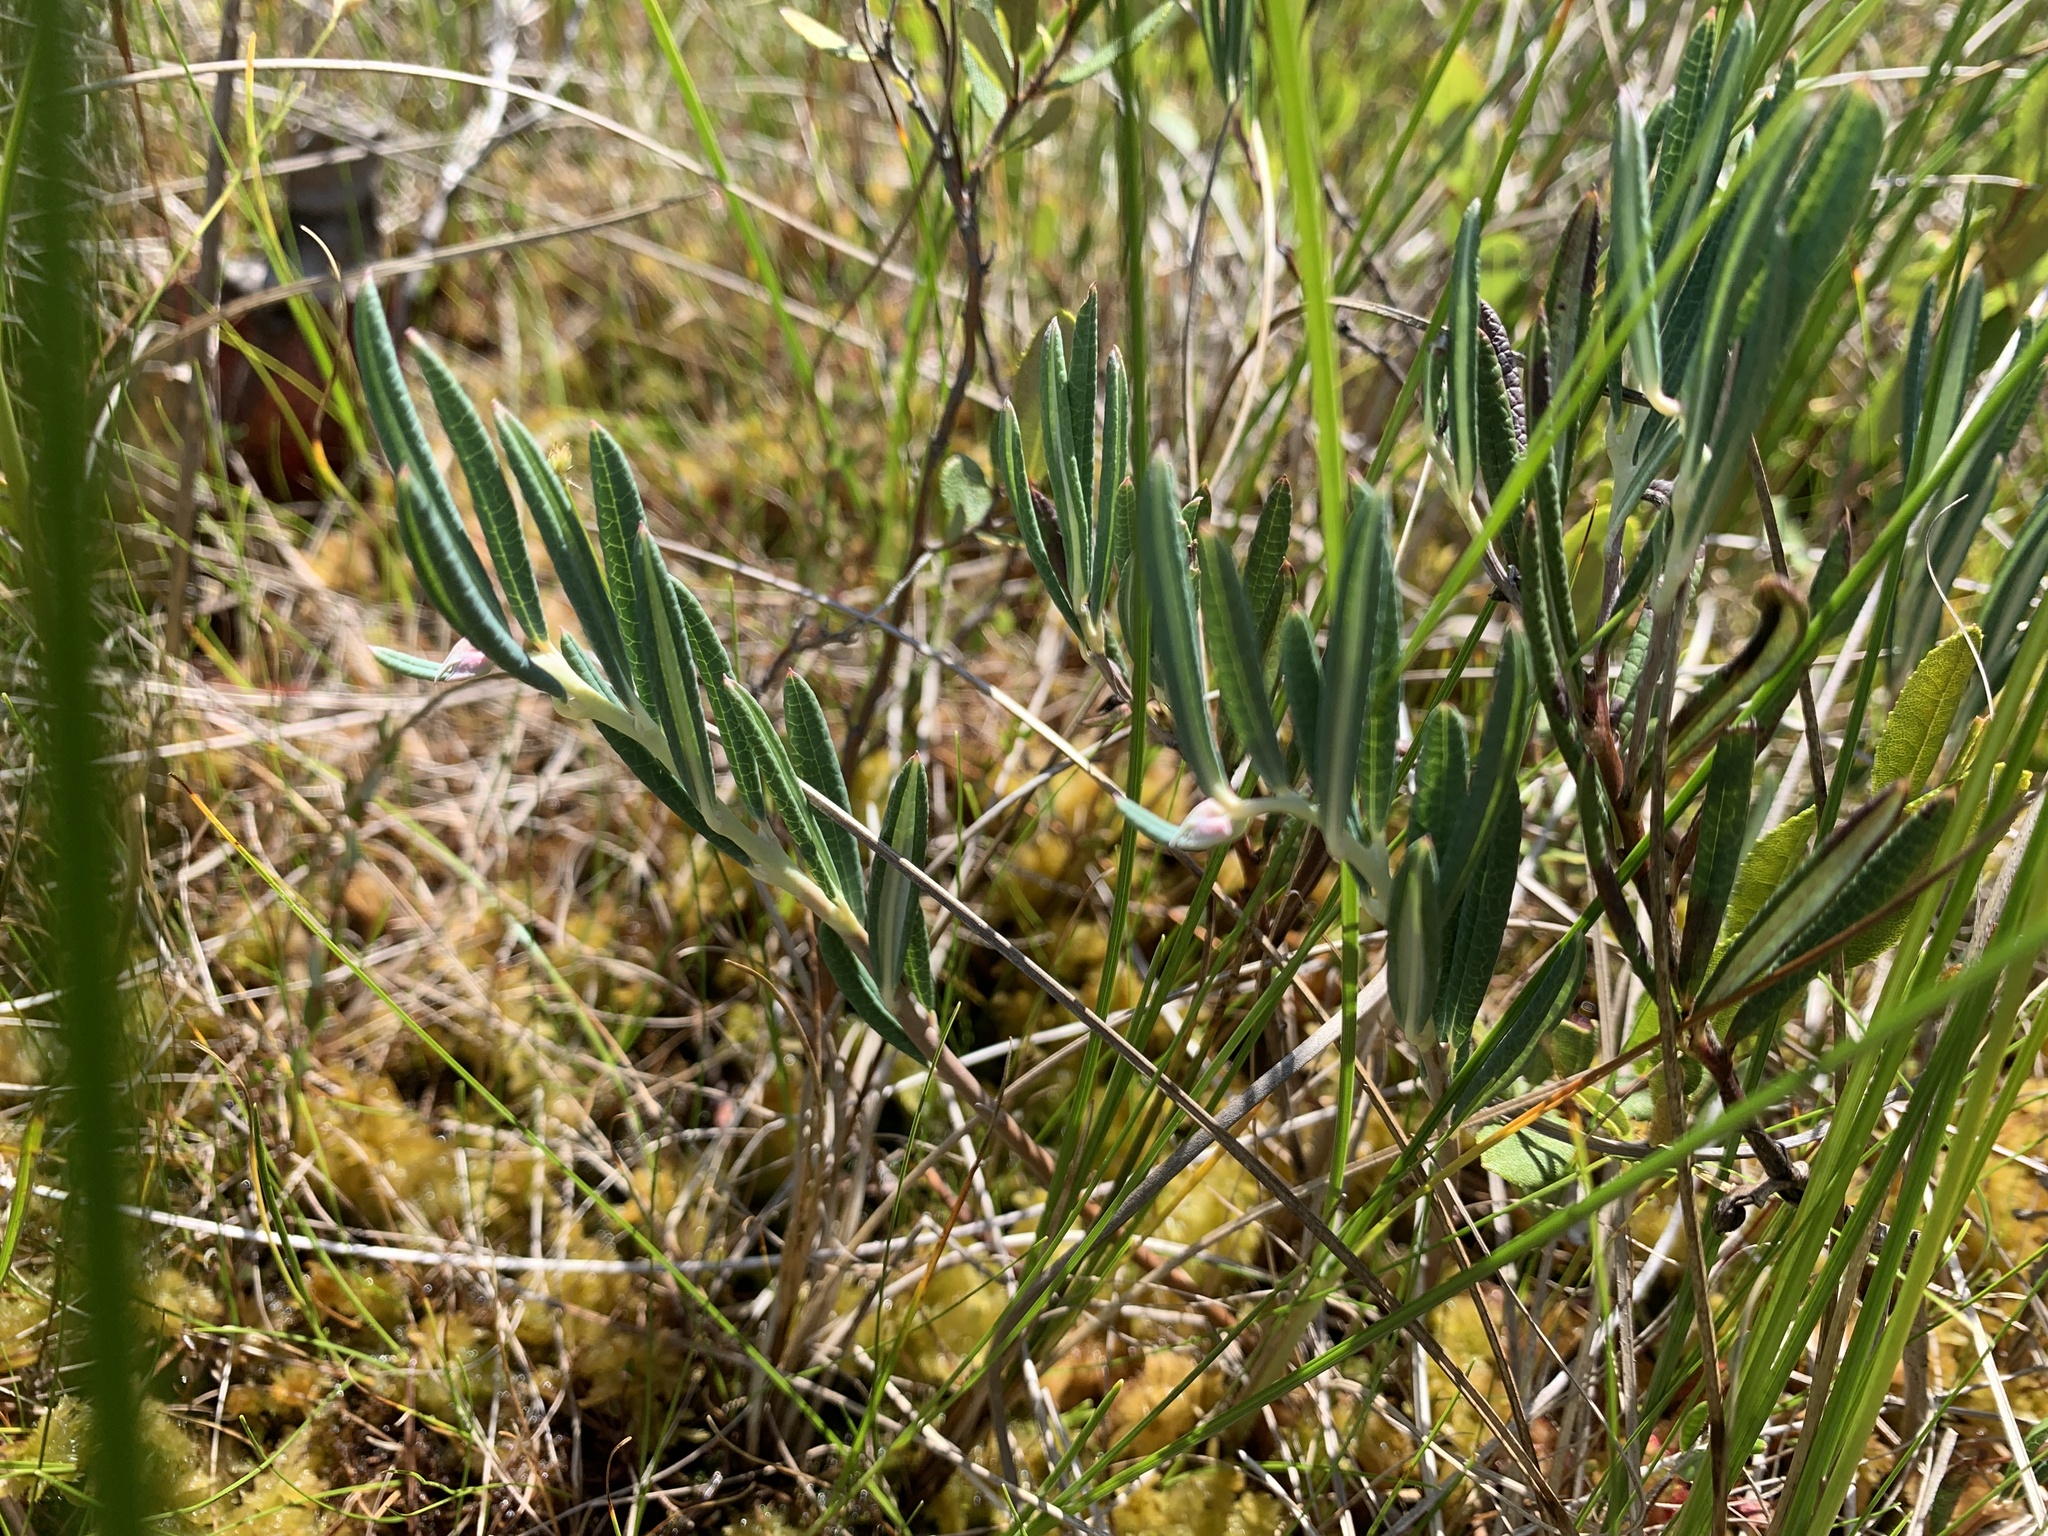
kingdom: Plantae
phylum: Tracheophyta
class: Magnoliopsida
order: Ericales
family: Ericaceae
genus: Andromeda
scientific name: Andromeda polifolia
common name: Bog-rosemary
